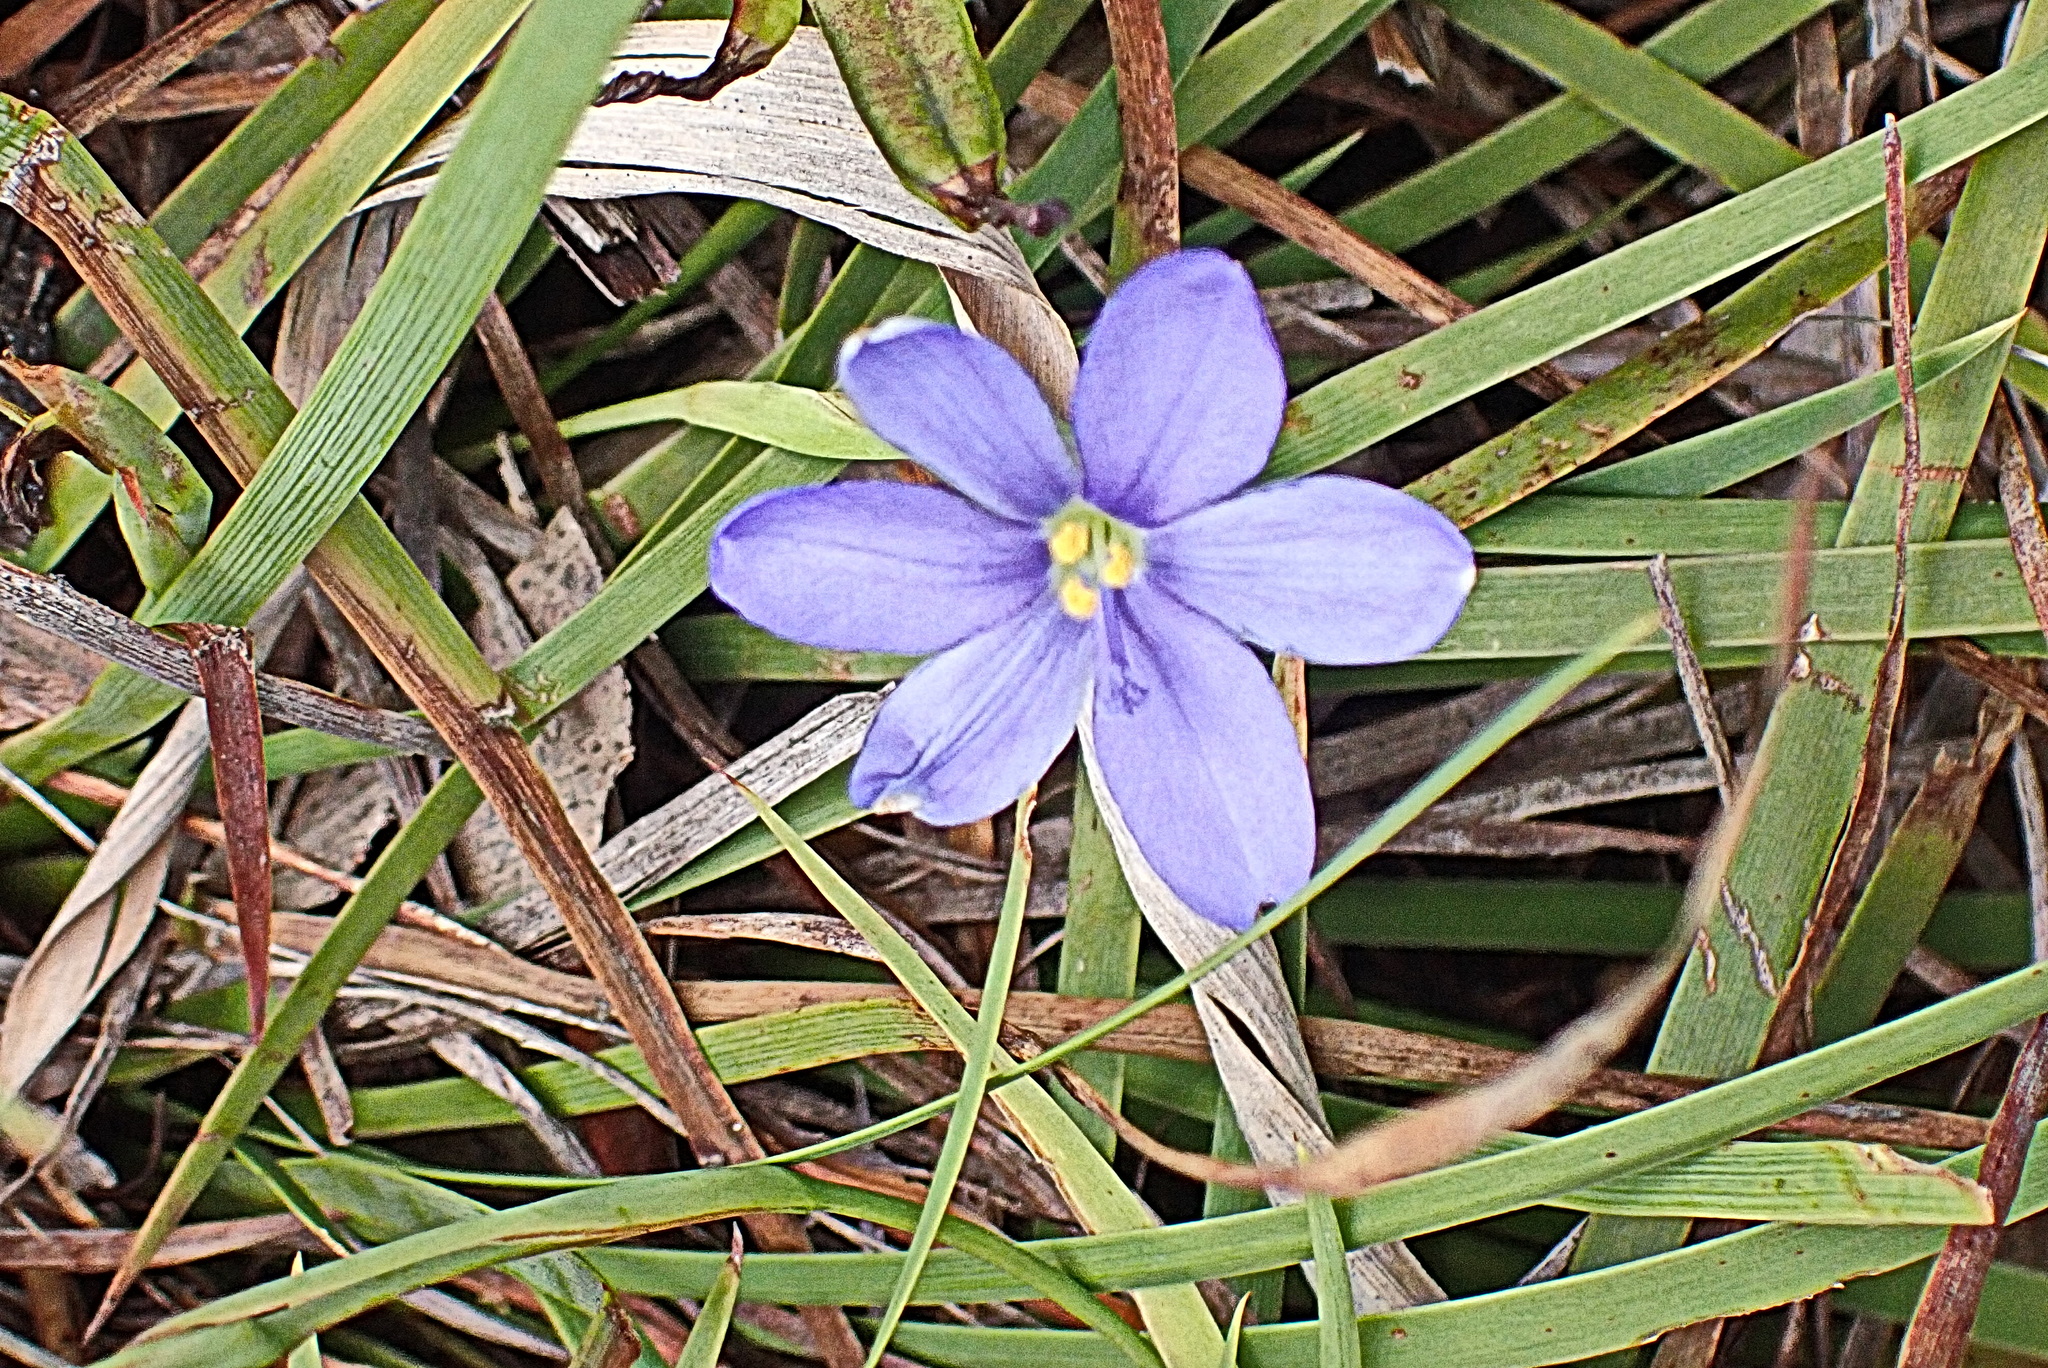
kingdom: Plantae
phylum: Tracheophyta
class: Liliopsida
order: Asparagales
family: Iridaceae
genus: Aristea
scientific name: Aristea nana
